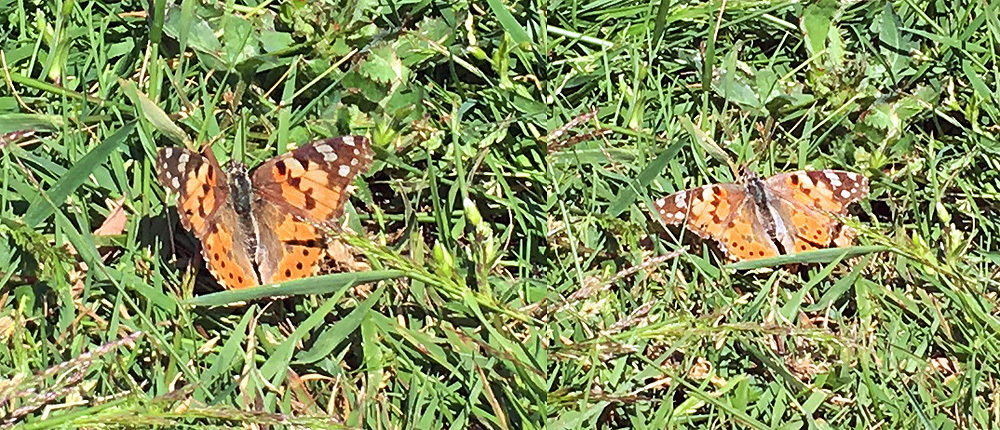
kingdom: Animalia
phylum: Arthropoda
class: Insecta
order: Lepidoptera
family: Nymphalidae
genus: Vanessa
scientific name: Vanessa cardui
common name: Painted lady
